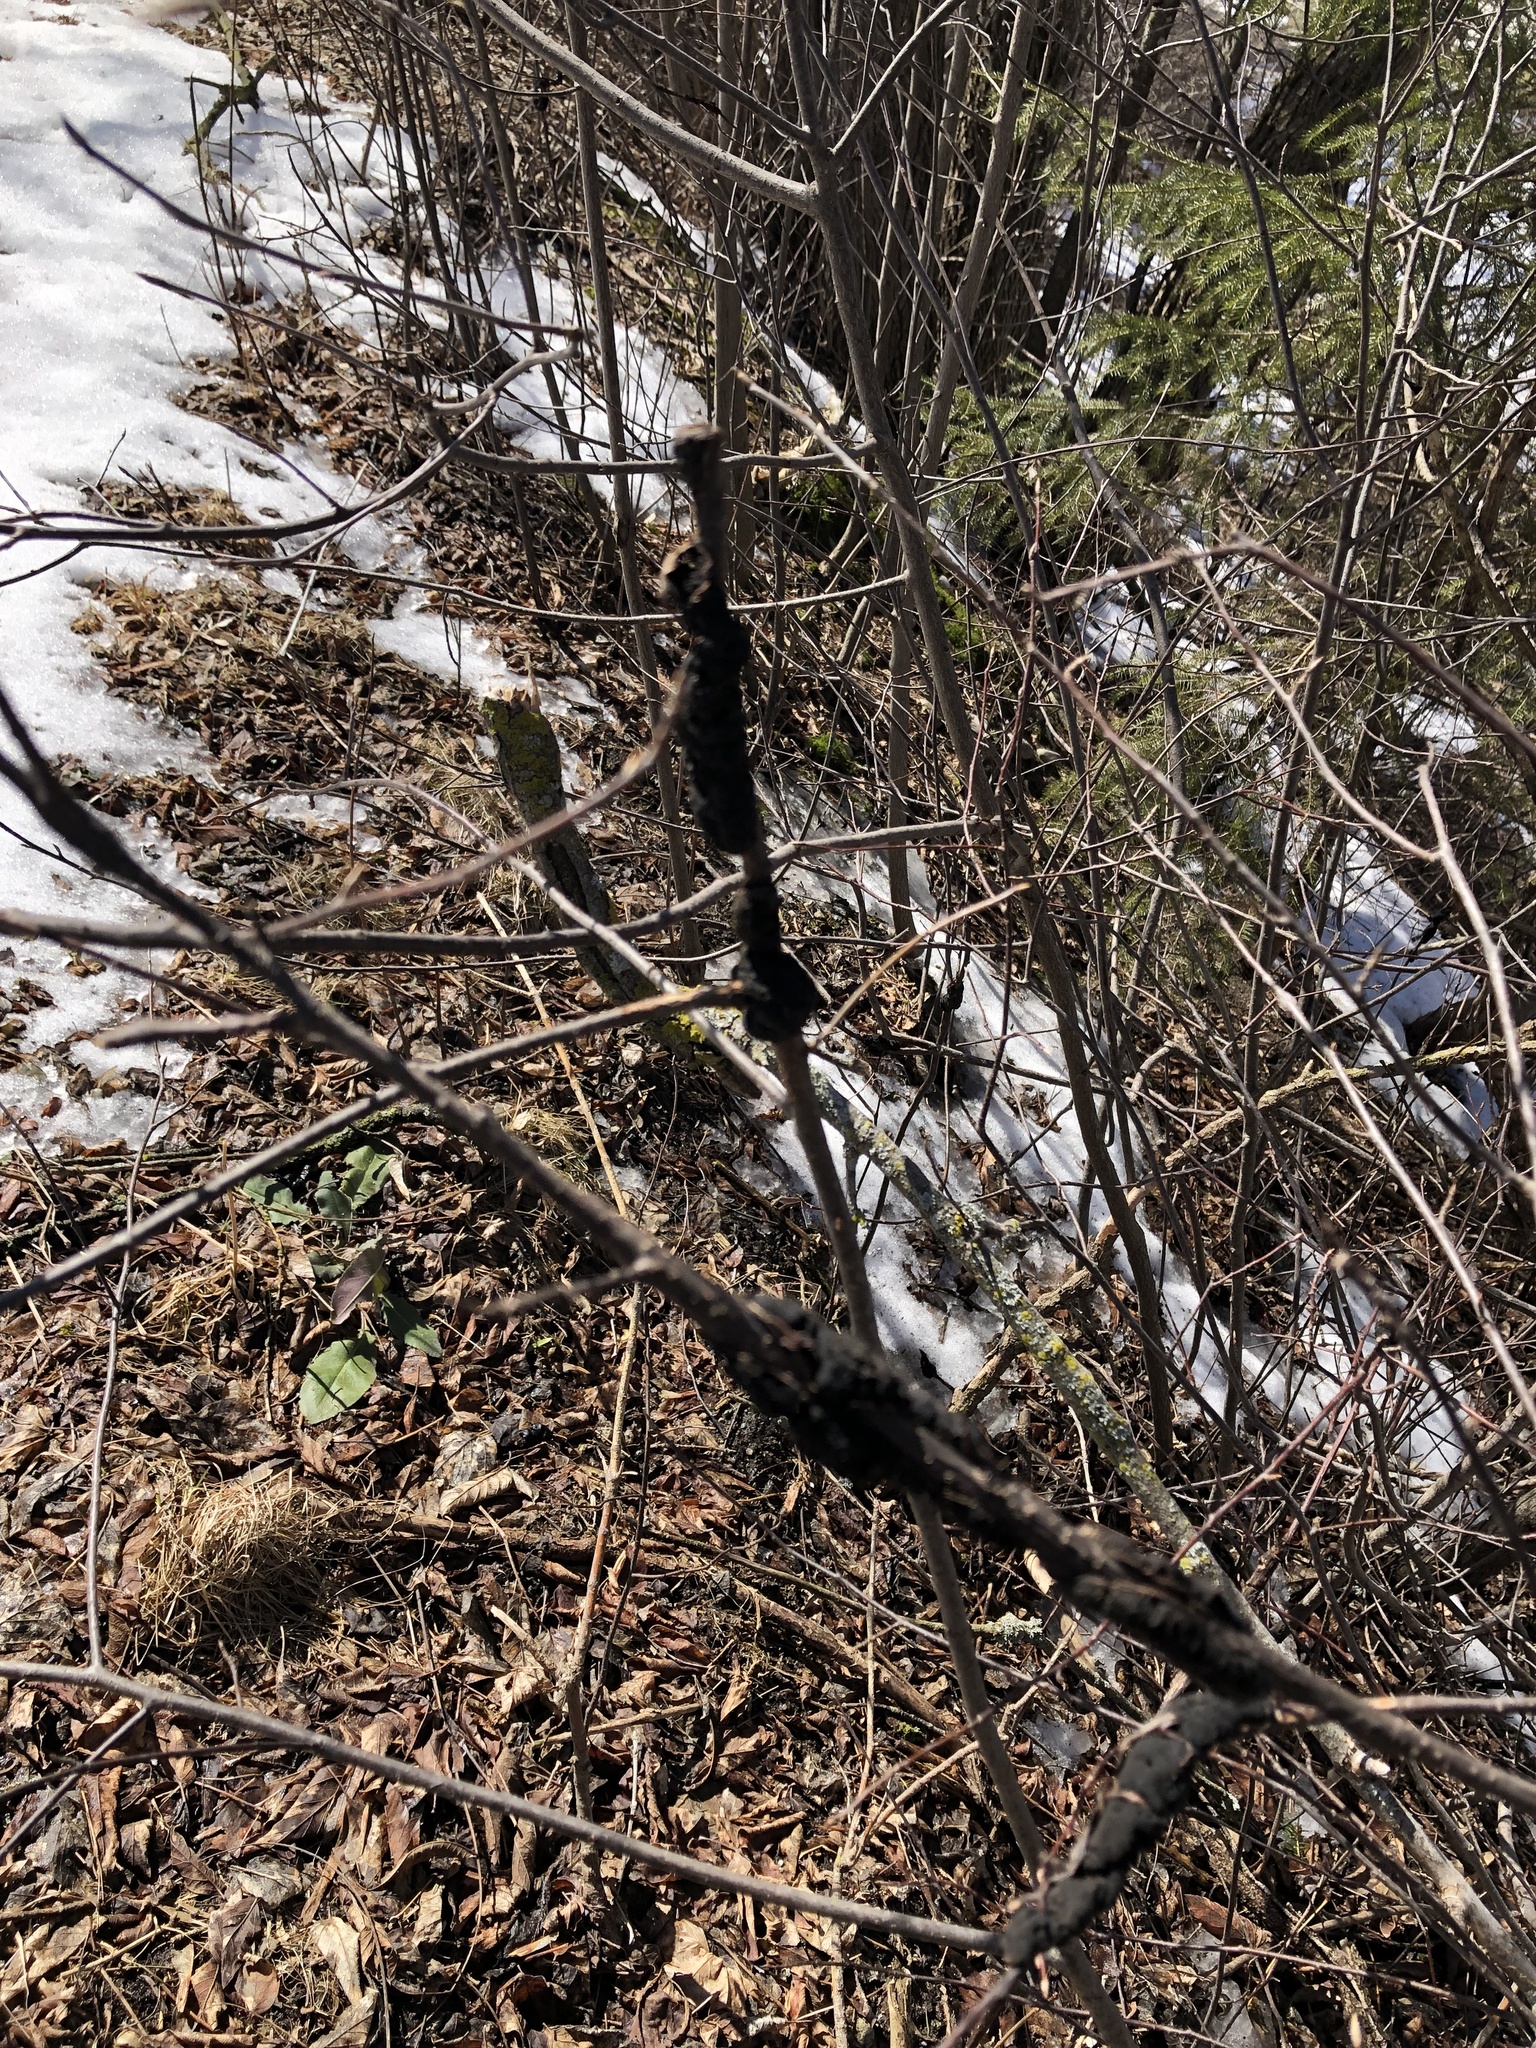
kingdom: Fungi
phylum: Ascomycota
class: Dothideomycetes
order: Venturiales
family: Venturiaceae
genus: Apiosporina
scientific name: Apiosporina morbosa
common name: Black knot
